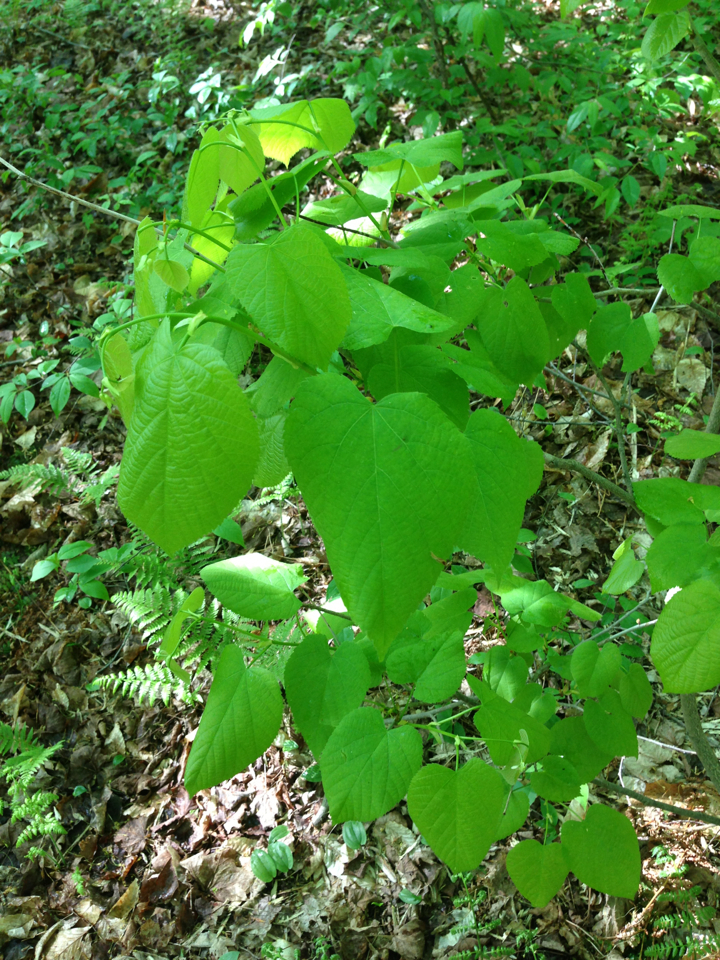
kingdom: Plantae
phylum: Tracheophyta
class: Magnoliopsida
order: Malvales
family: Malvaceae
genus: Tilia
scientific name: Tilia americana
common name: Basswood
